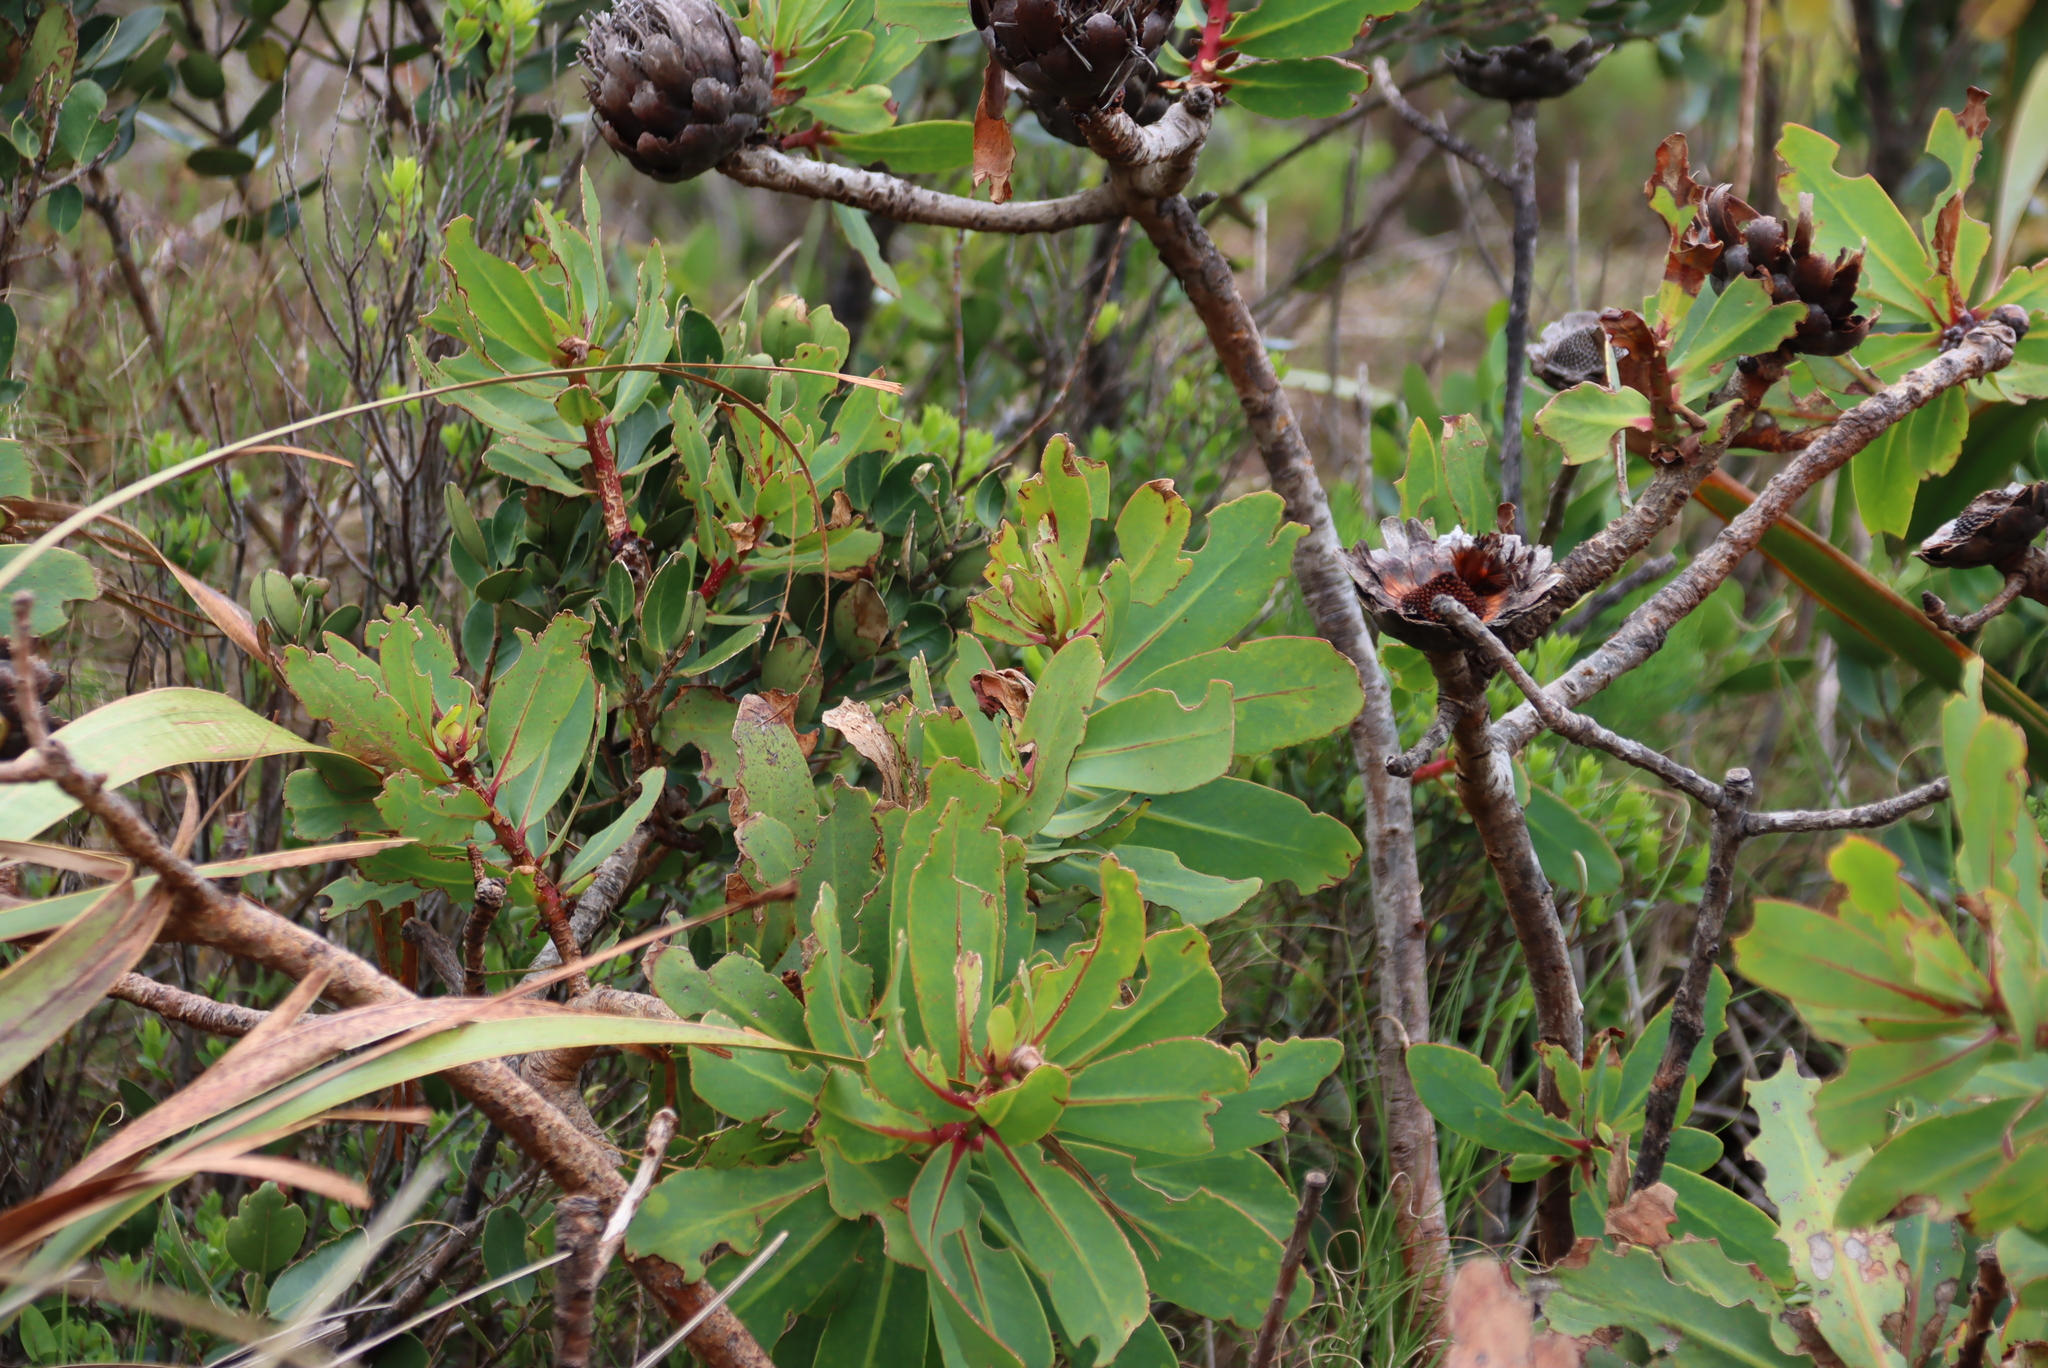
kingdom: Plantae
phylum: Tracheophyta
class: Magnoliopsida
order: Proteales
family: Proteaceae
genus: Protea
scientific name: Protea nitida
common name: Tree protea
